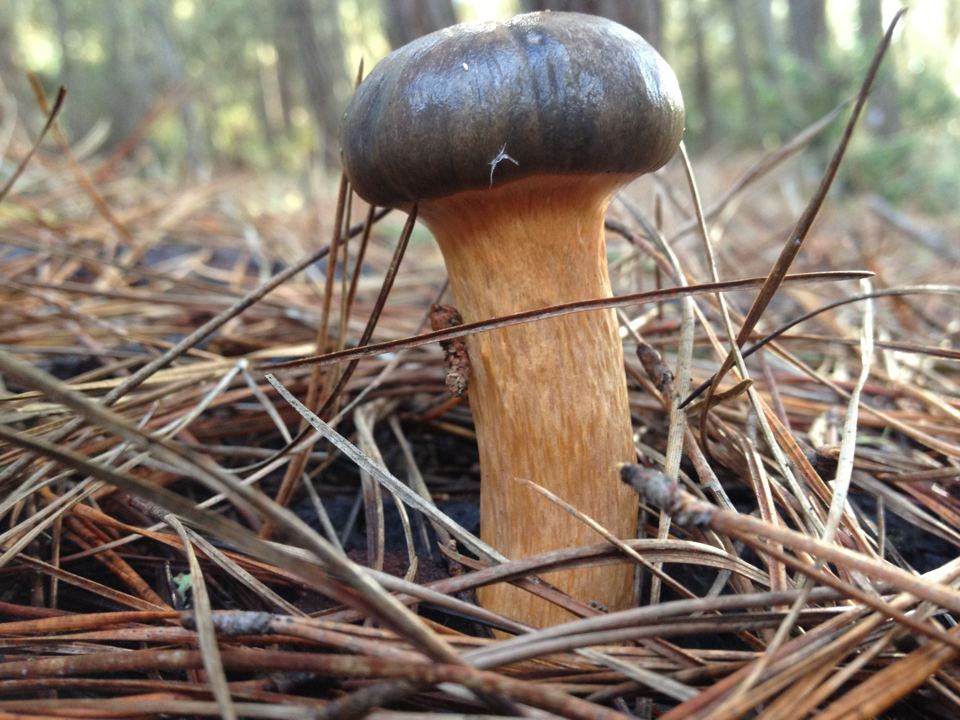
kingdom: Fungi
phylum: Basidiomycota
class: Agaricomycetes
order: Boletales
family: Gomphidiaceae
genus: Chroogomphus
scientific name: Chroogomphus vinicolor
